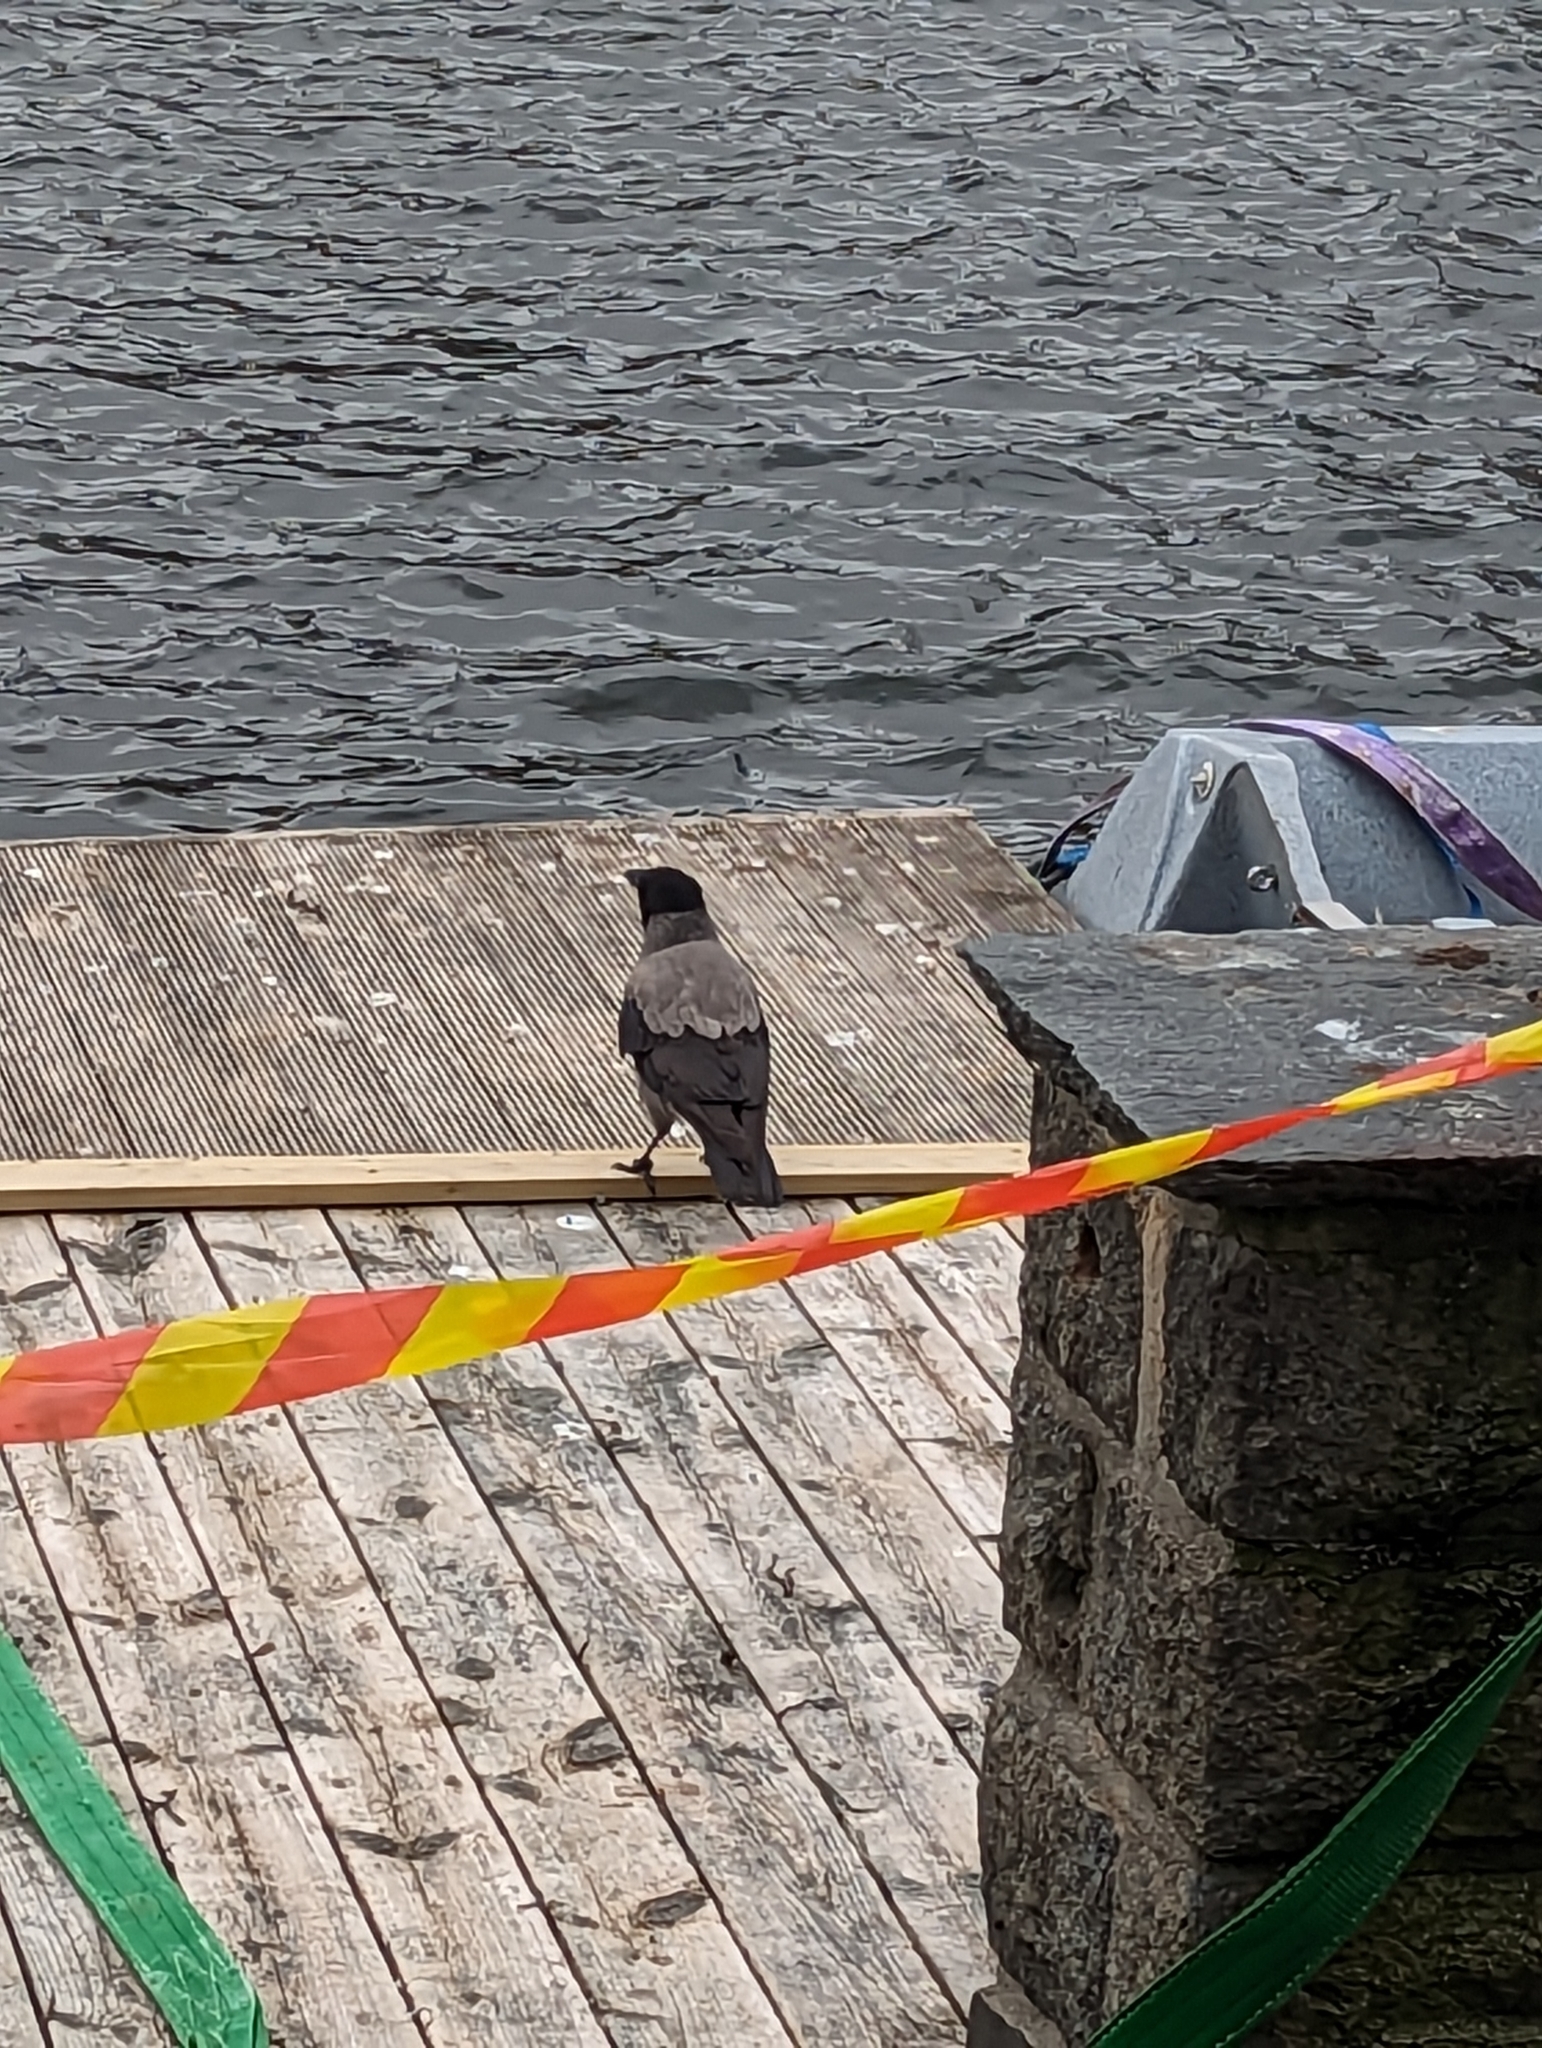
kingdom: Animalia
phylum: Chordata
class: Aves
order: Passeriformes
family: Corvidae
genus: Corvus
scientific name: Corvus cornix
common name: Hooded crow
